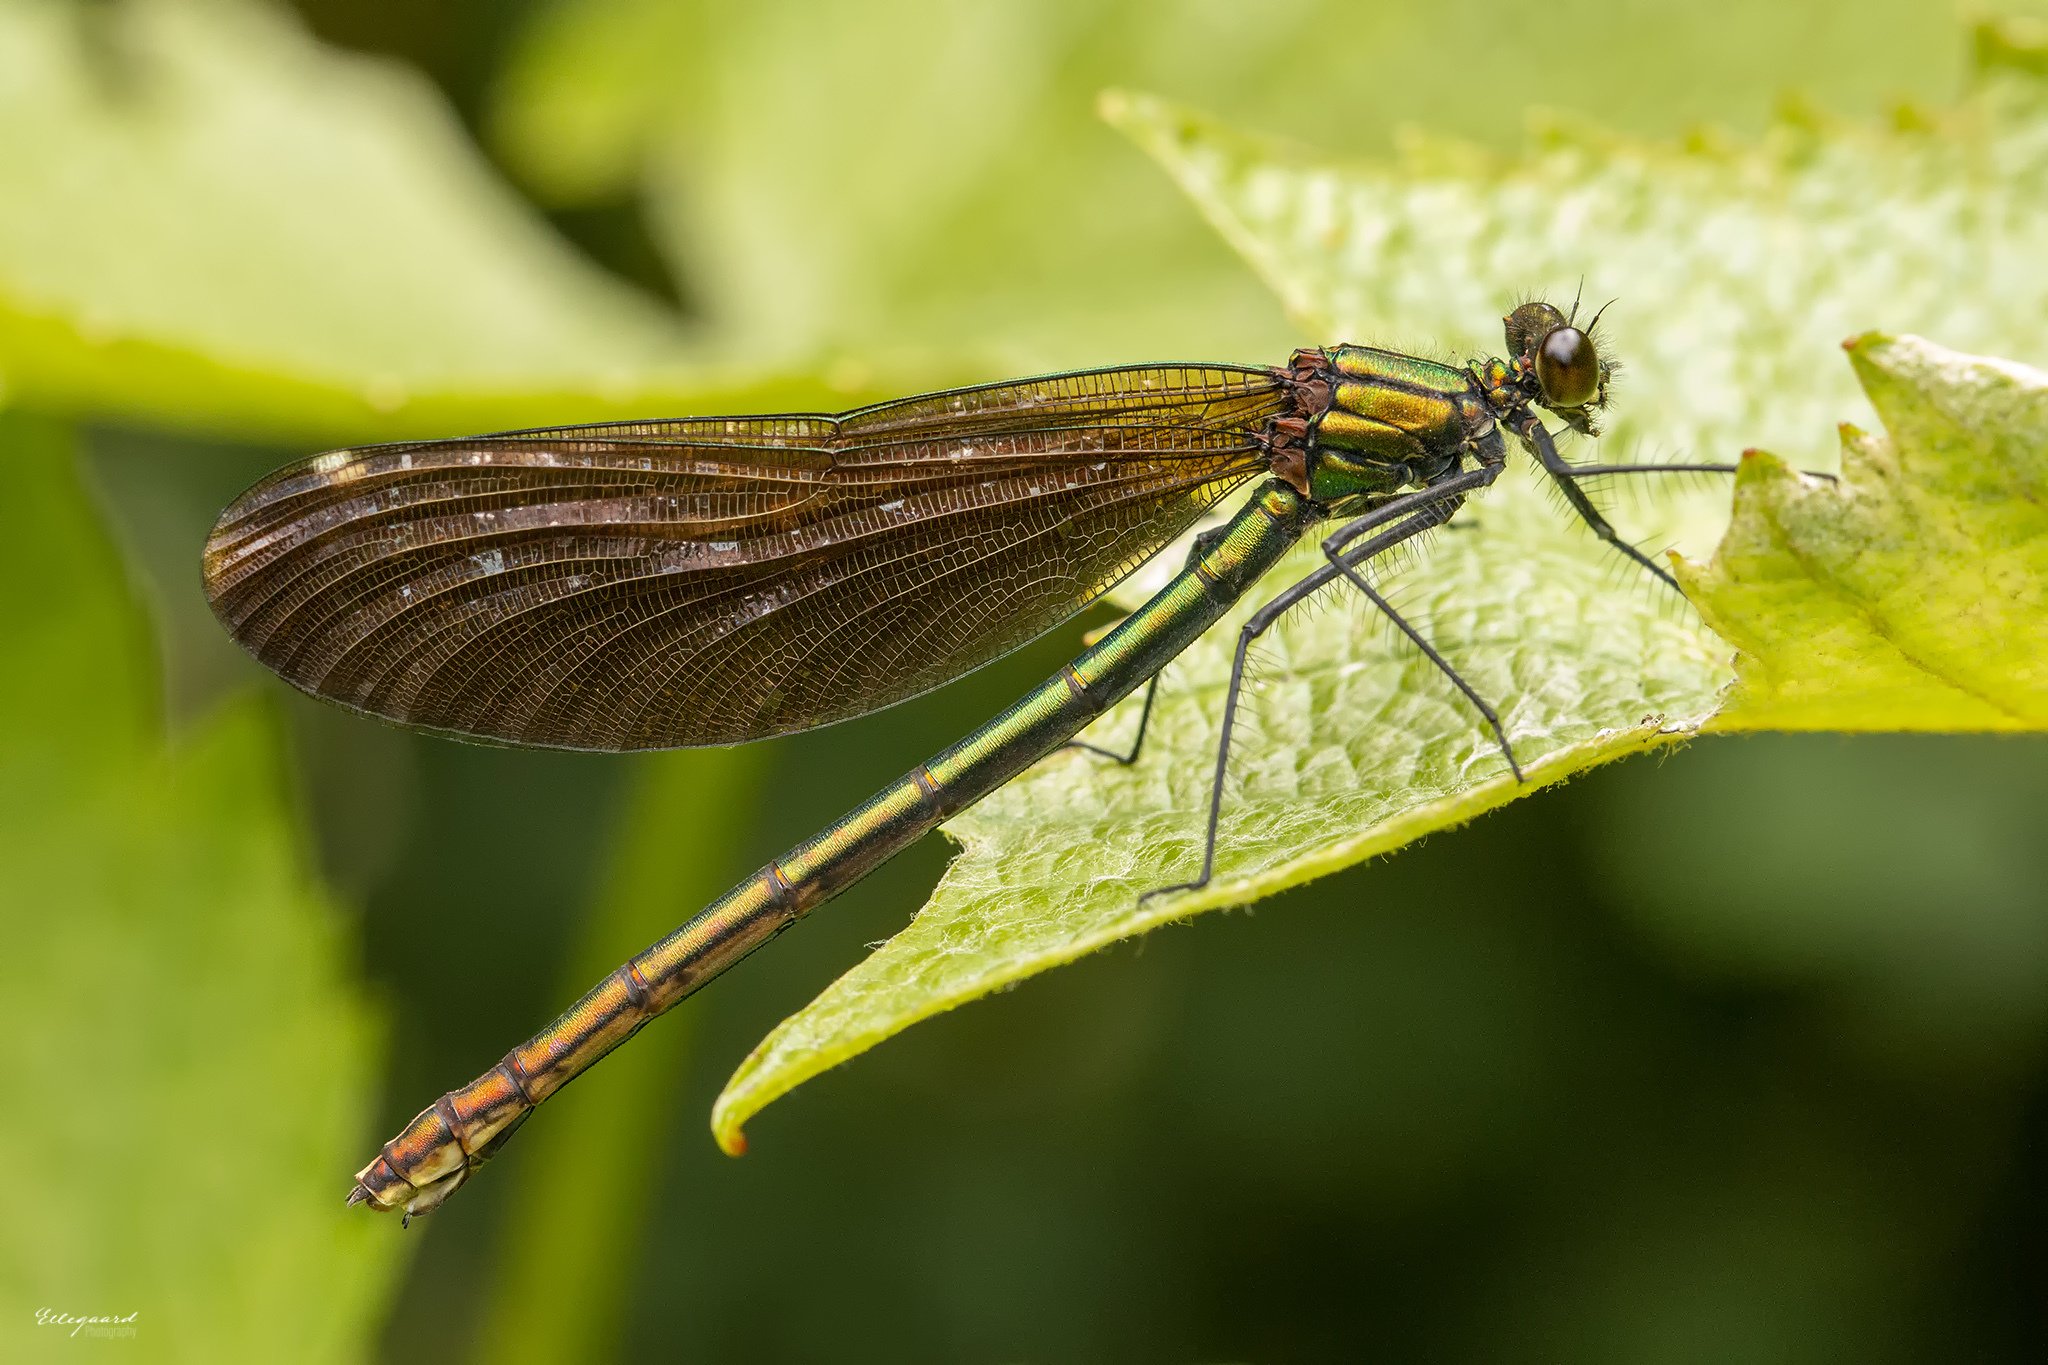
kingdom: Animalia
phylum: Arthropoda
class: Insecta
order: Odonata
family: Calopterygidae
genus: Calopteryx
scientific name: Calopteryx virgo
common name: Beautiful demoiselle
